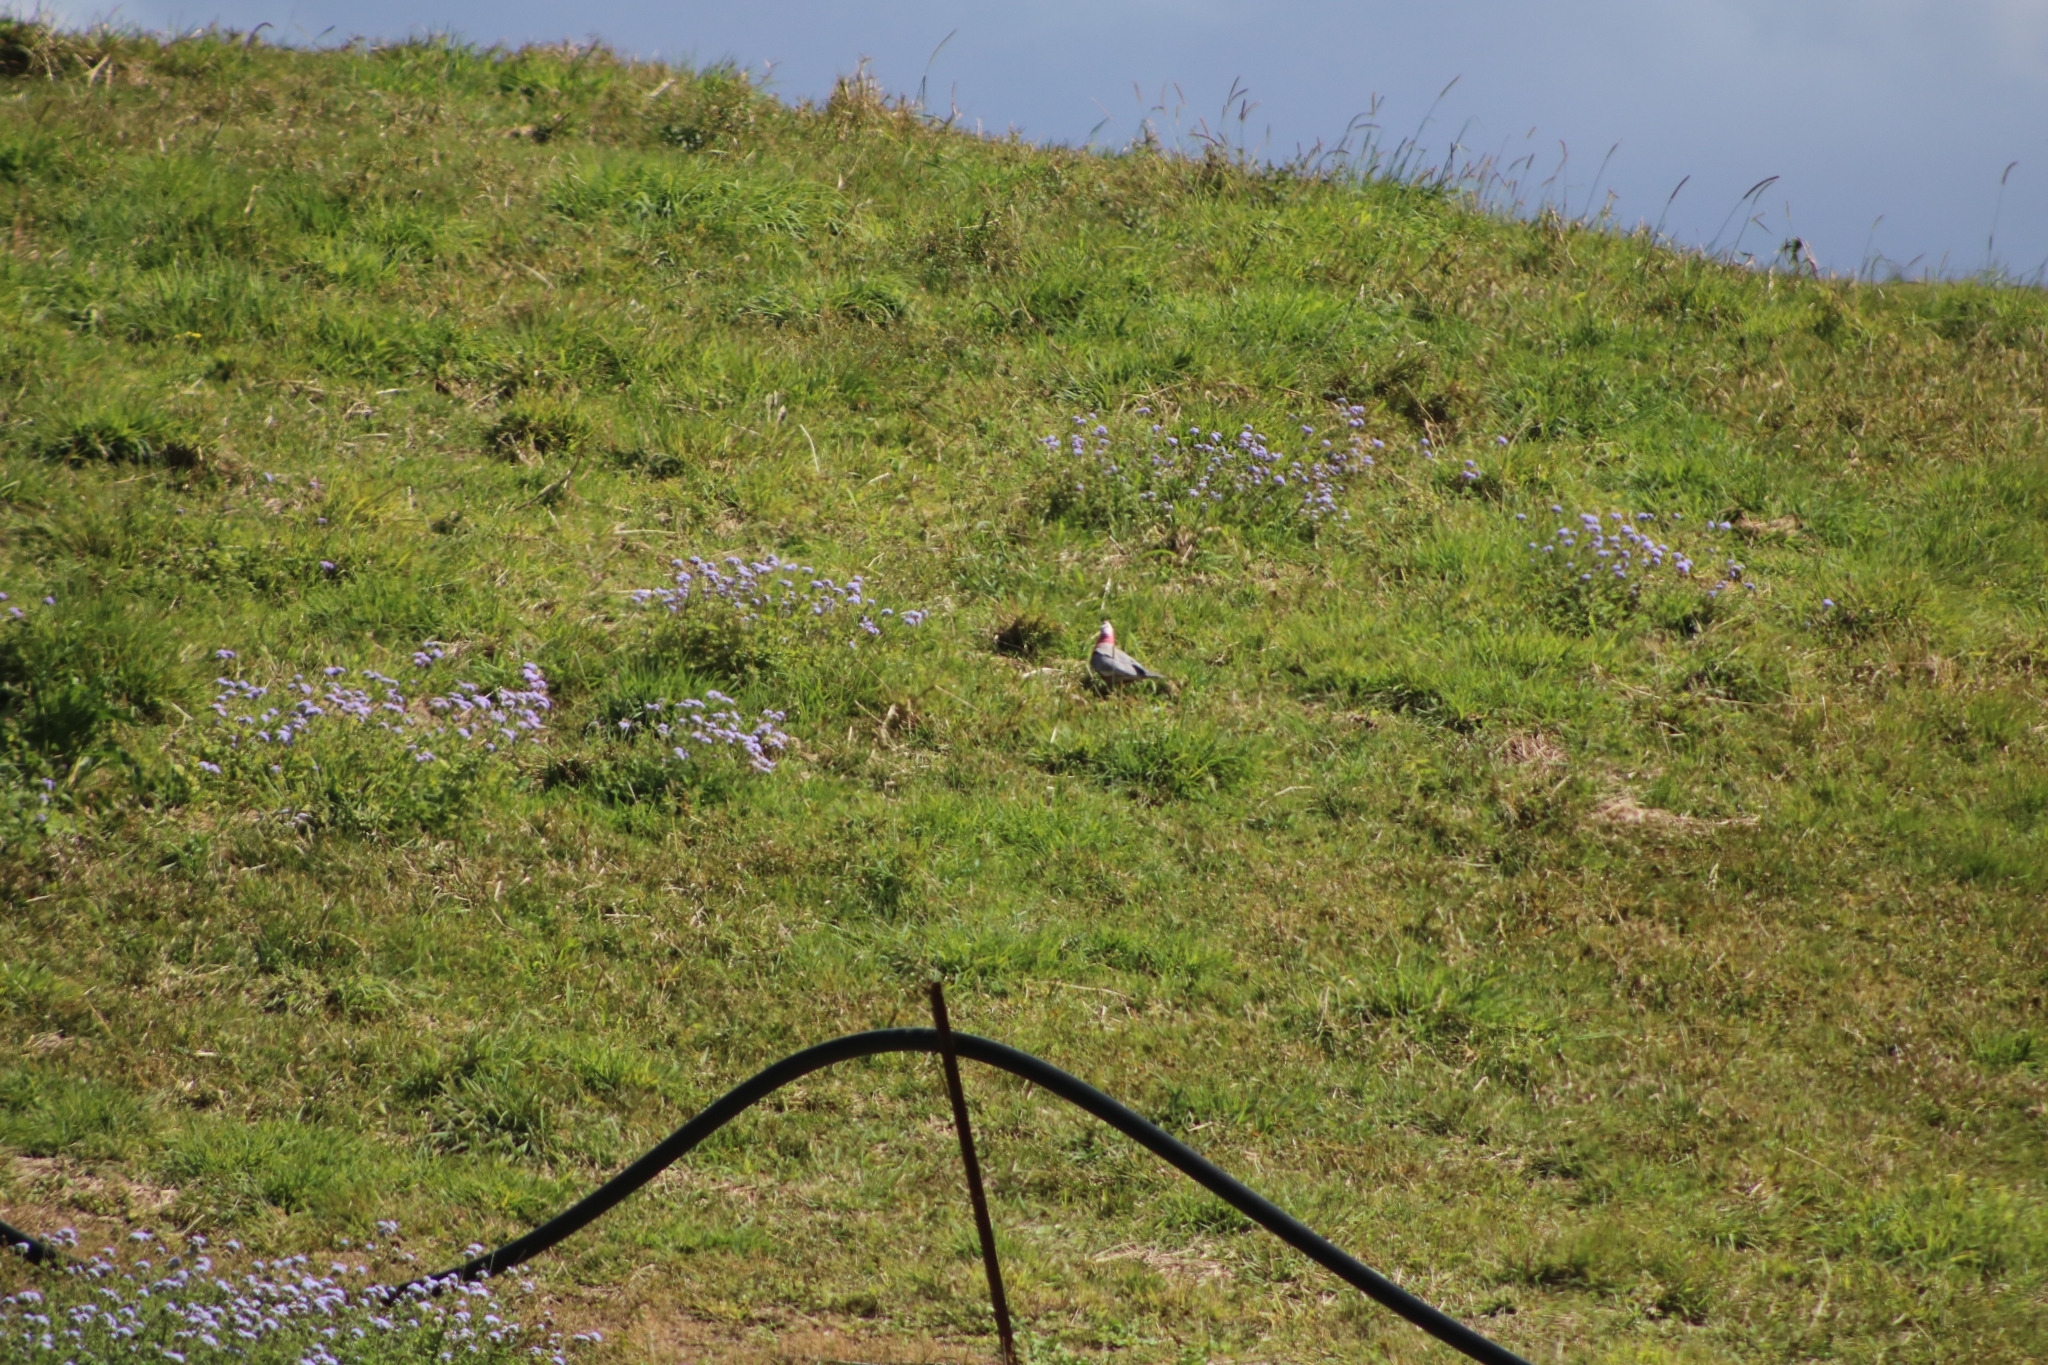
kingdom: Animalia
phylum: Chordata
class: Aves
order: Psittaciformes
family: Psittacidae
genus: Eolophus
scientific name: Eolophus roseicapilla
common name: Galah
